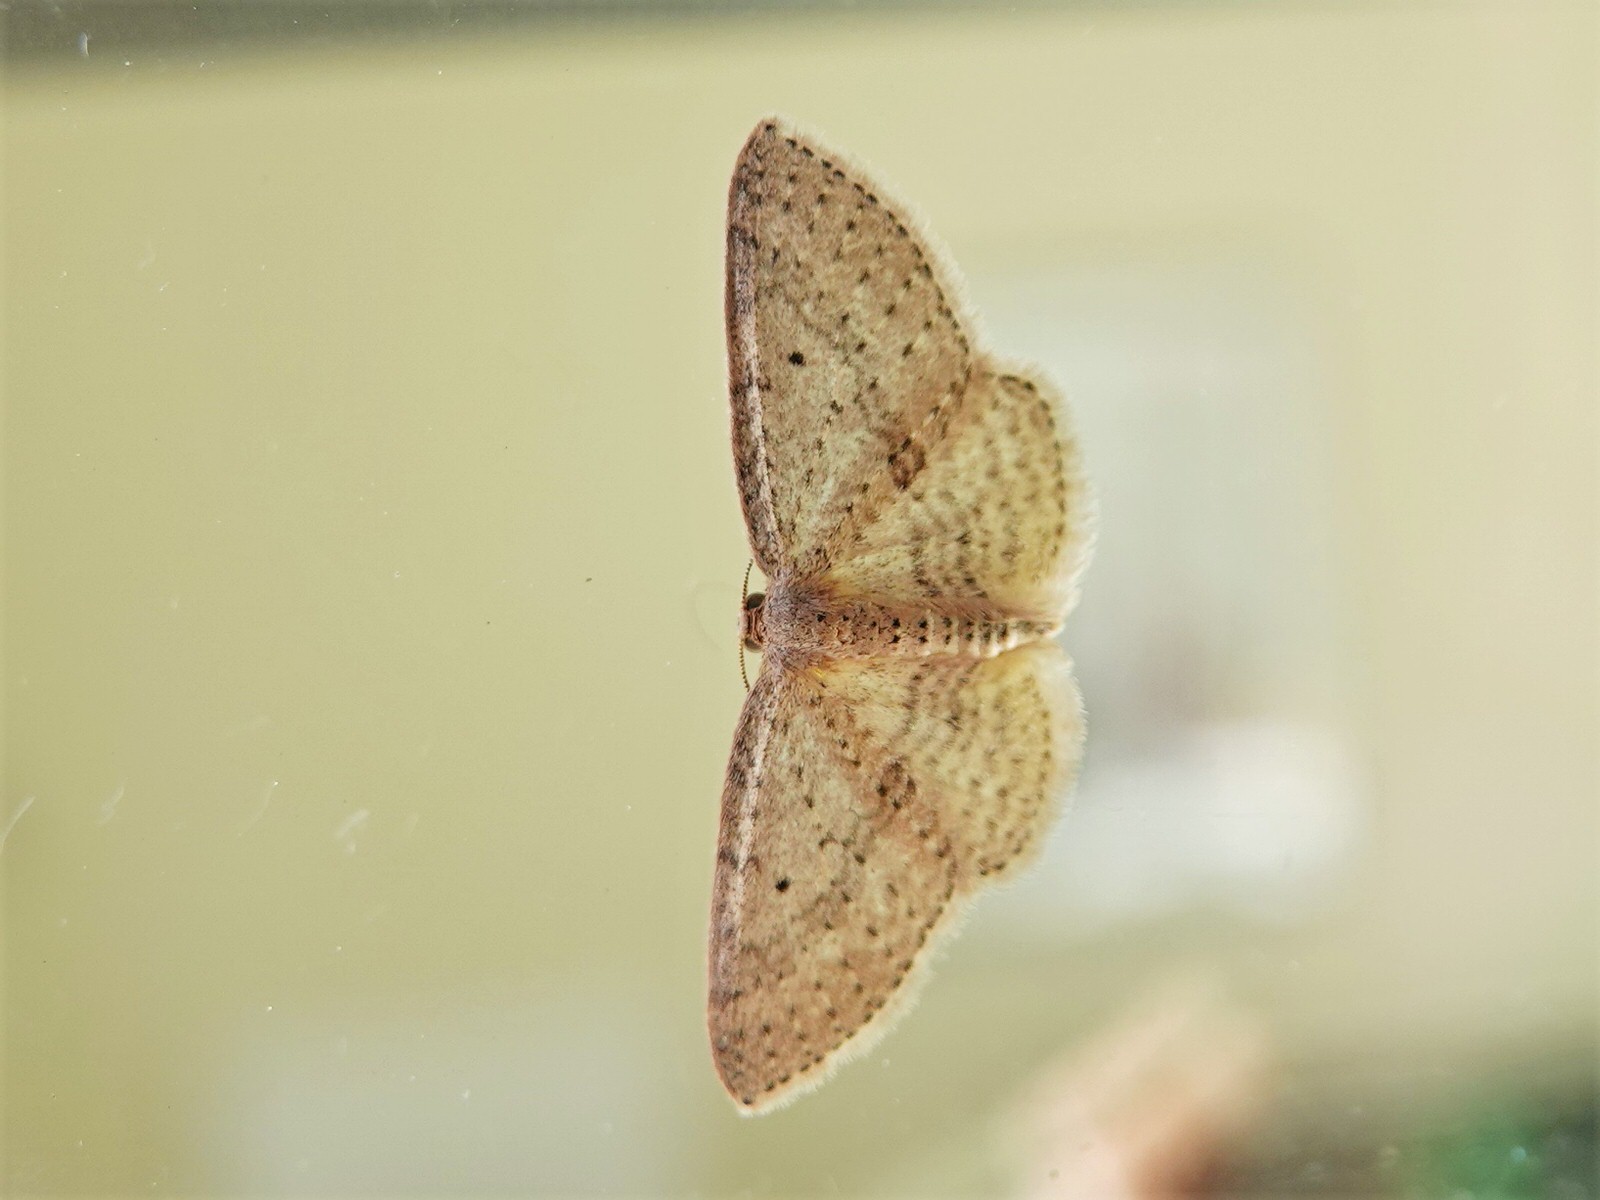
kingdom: Animalia
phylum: Arthropoda
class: Insecta
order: Lepidoptera
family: Geometridae
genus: Poecilasthena
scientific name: Poecilasthena schistaria
